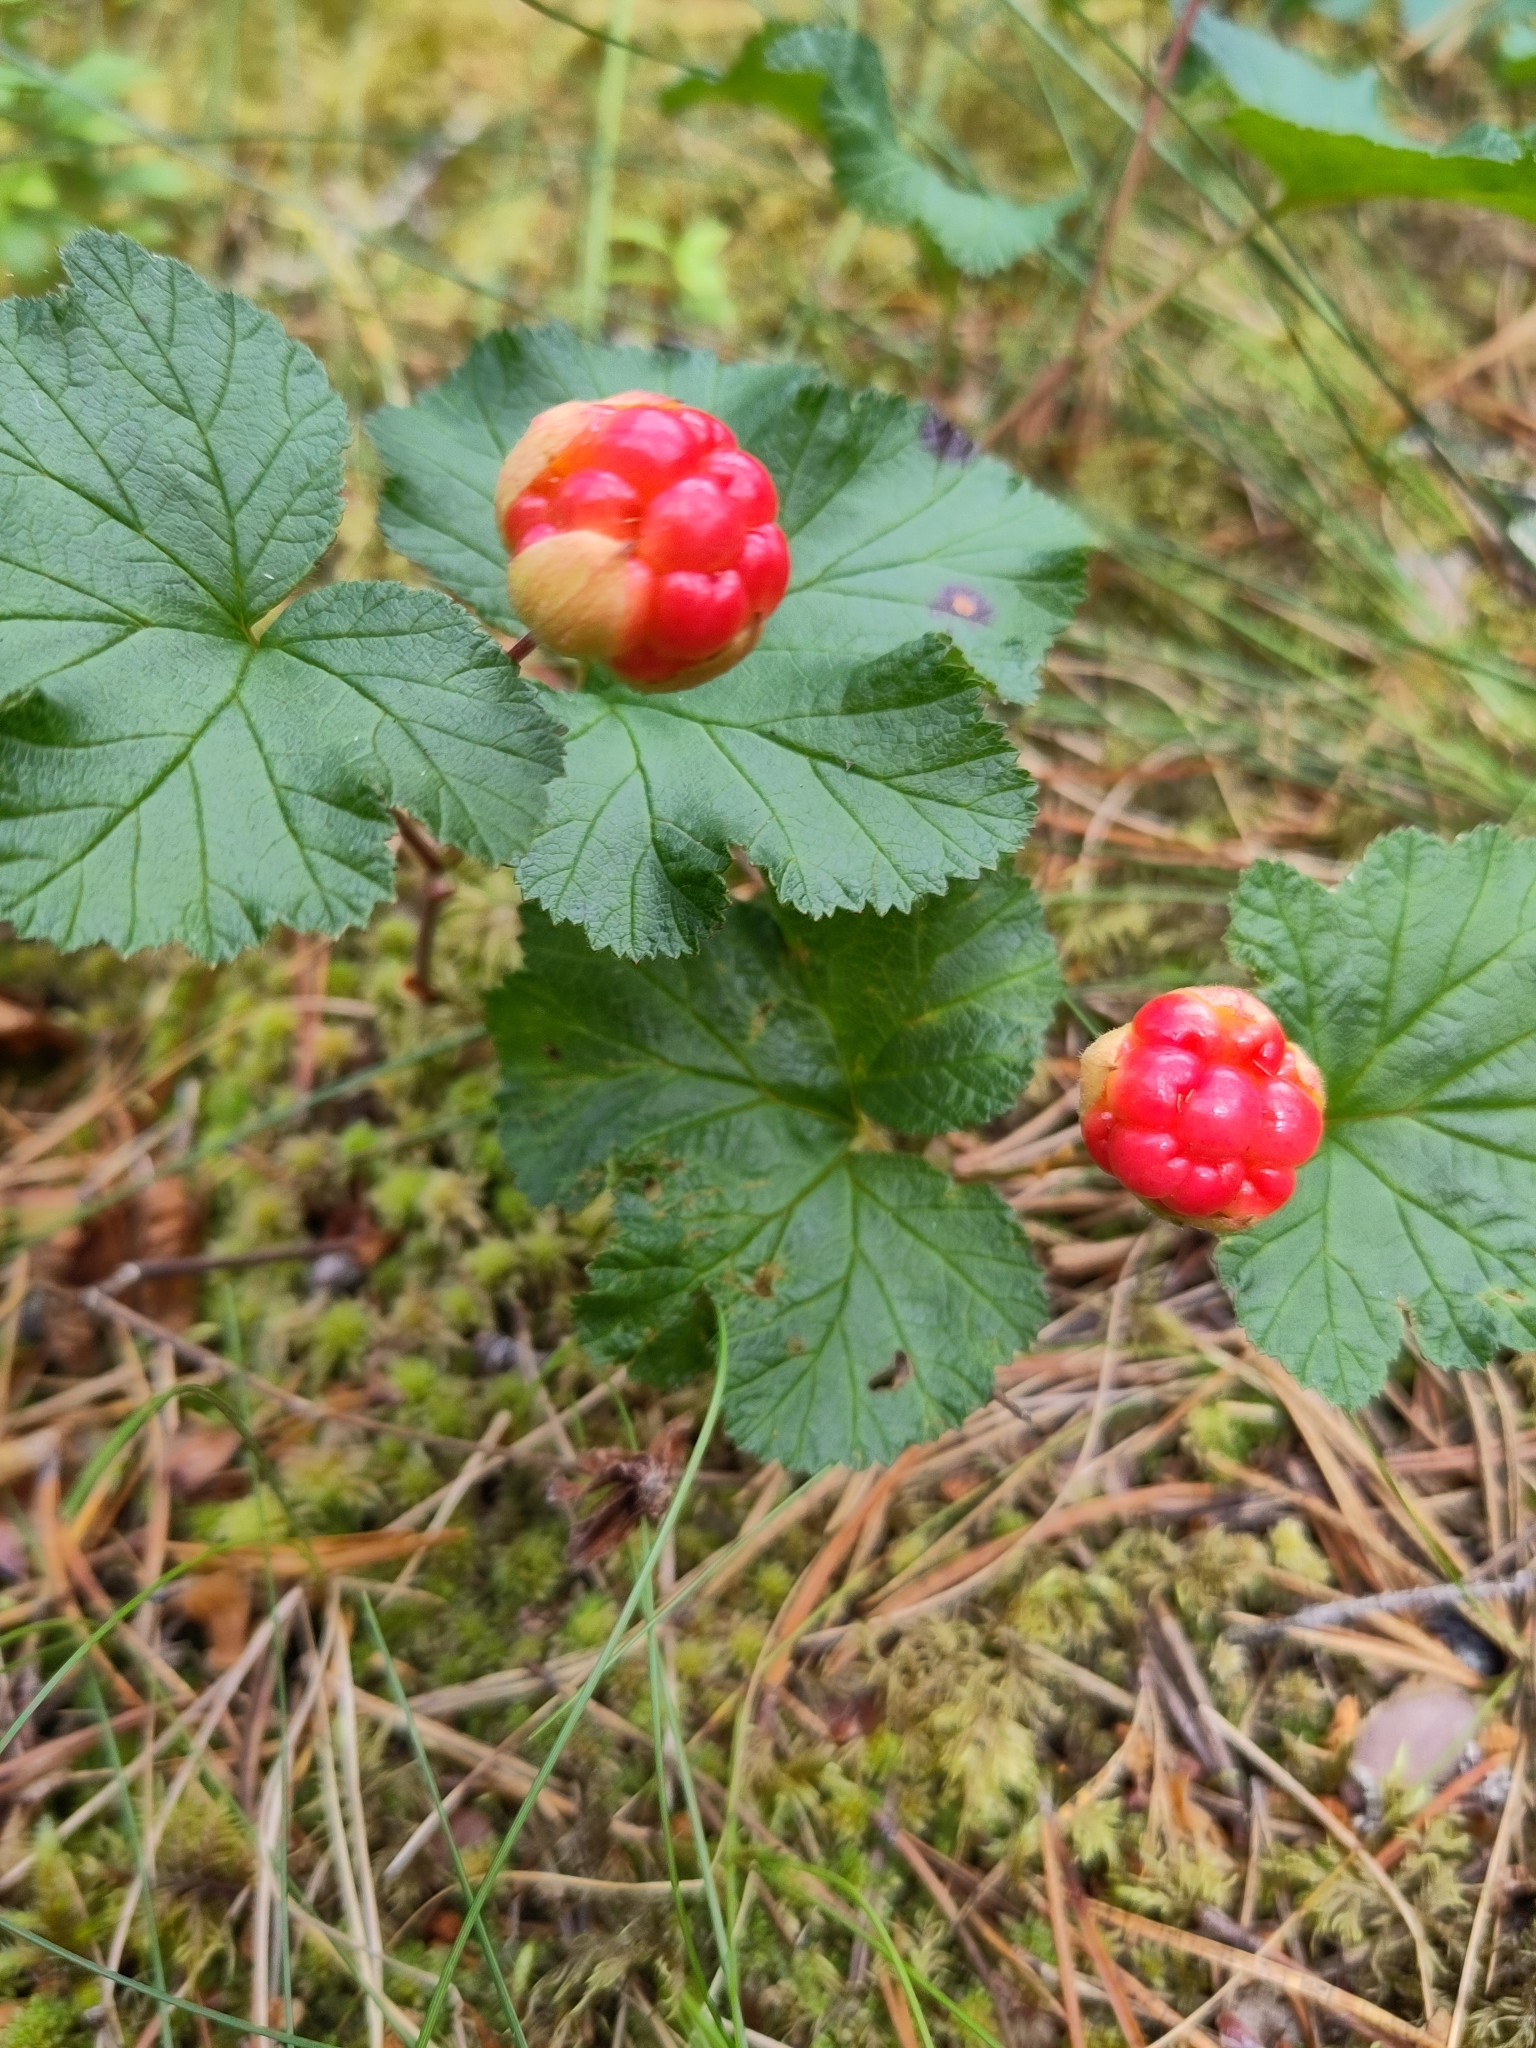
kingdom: Plantae
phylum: Tracheophyta
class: Magnoliopsida
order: Rosales
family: Rosaceae
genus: Rubus
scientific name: Rubus chamaemorus
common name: Cloudberry
